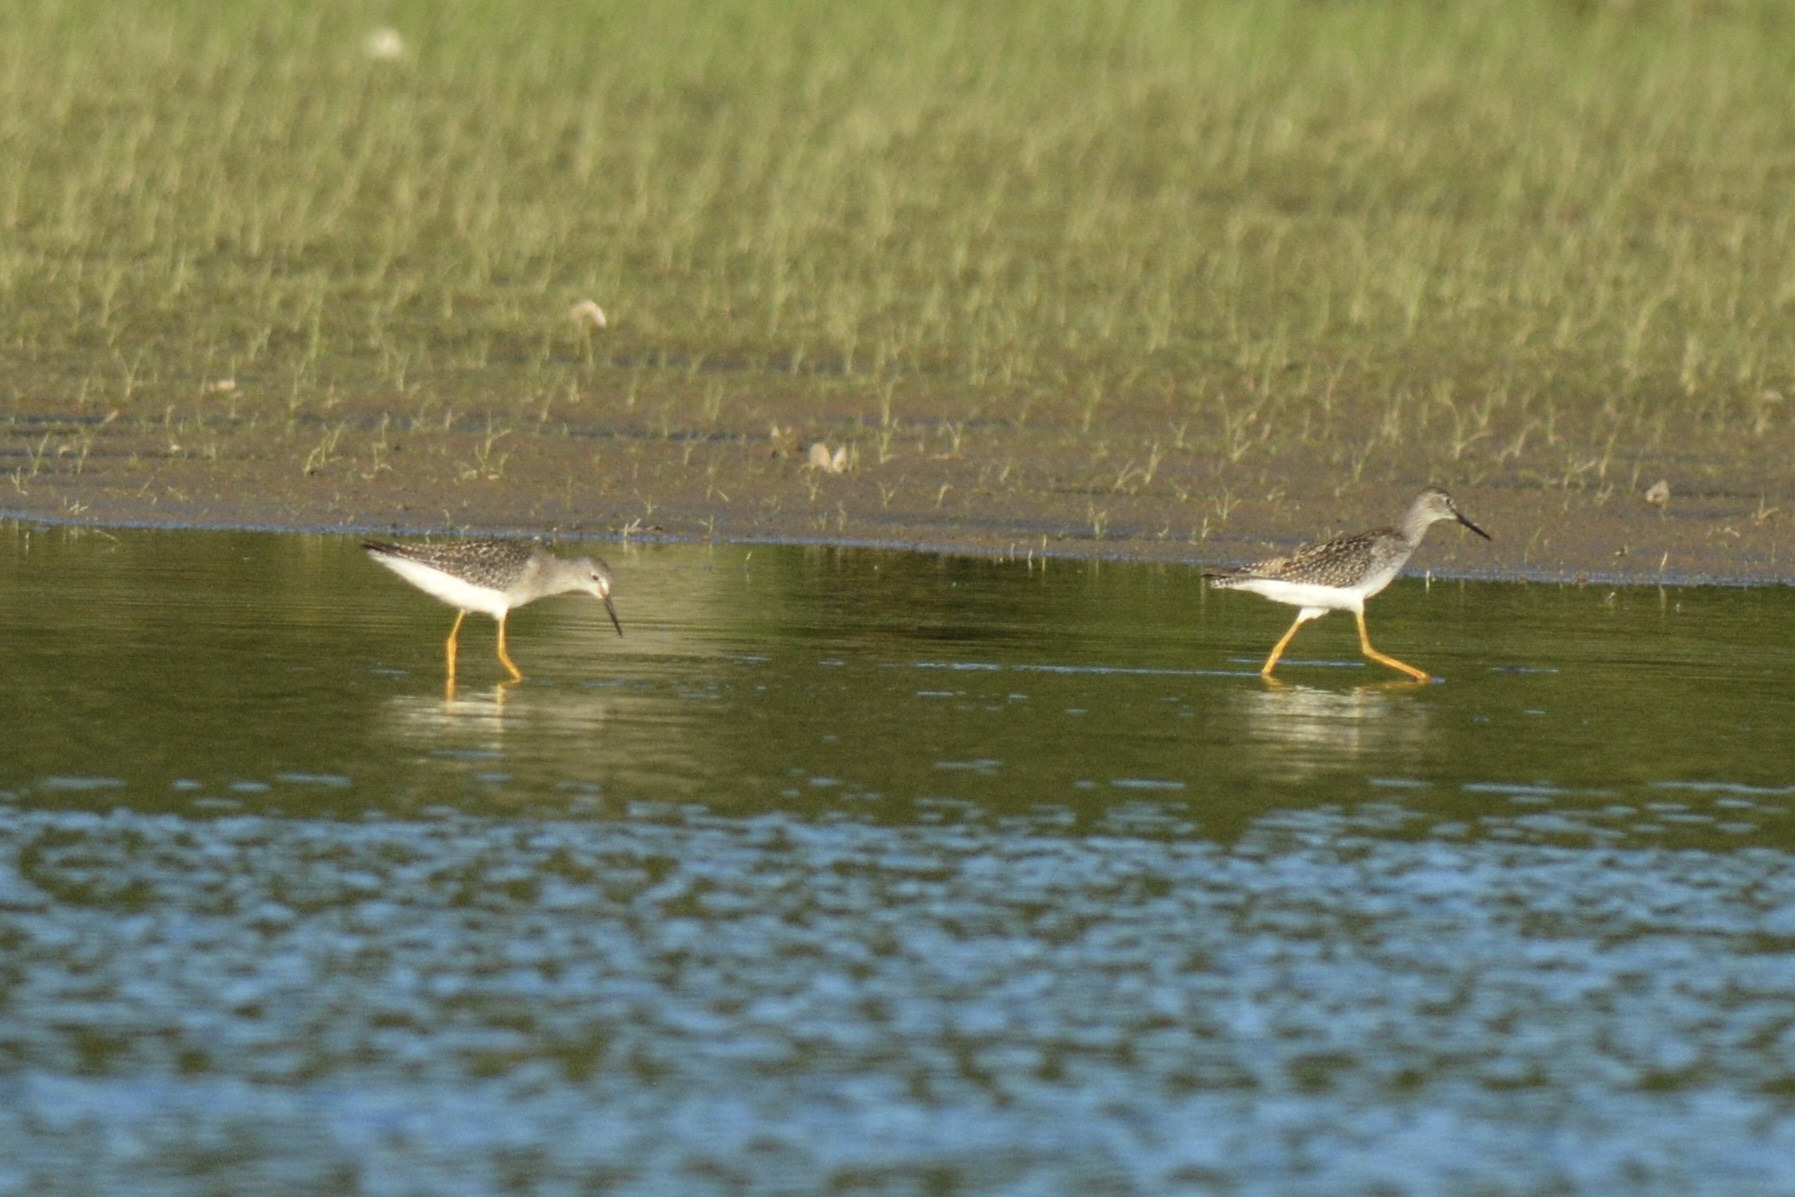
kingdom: Animalia
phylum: Chordata
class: Aves
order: Charadriiformes
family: Scolopacidae
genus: Tringa
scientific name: Tringa flavipes
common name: Lesser yellowlegs
